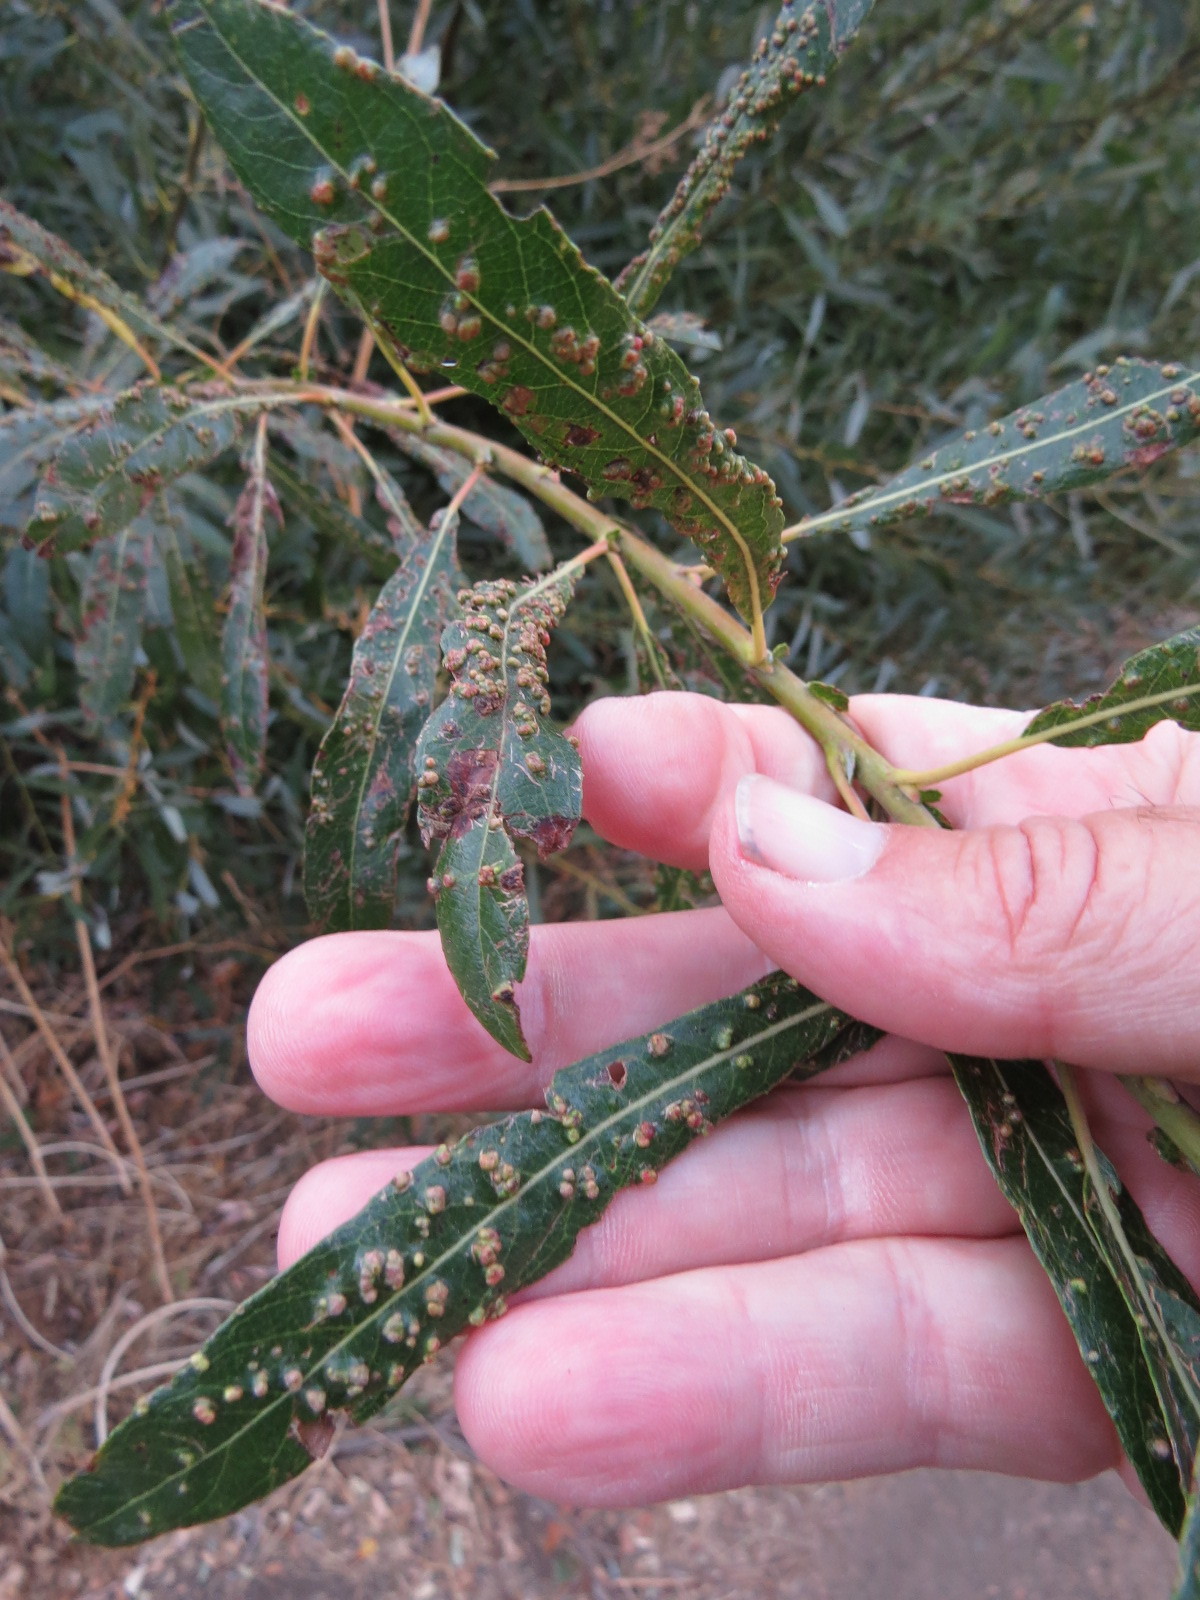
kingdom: Animalia
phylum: Arthropoda
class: Arachnida
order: Trombidiformes
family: Eriophyidae
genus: Aculus
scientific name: Aculus tetanothrix
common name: Willow bead gall mite
